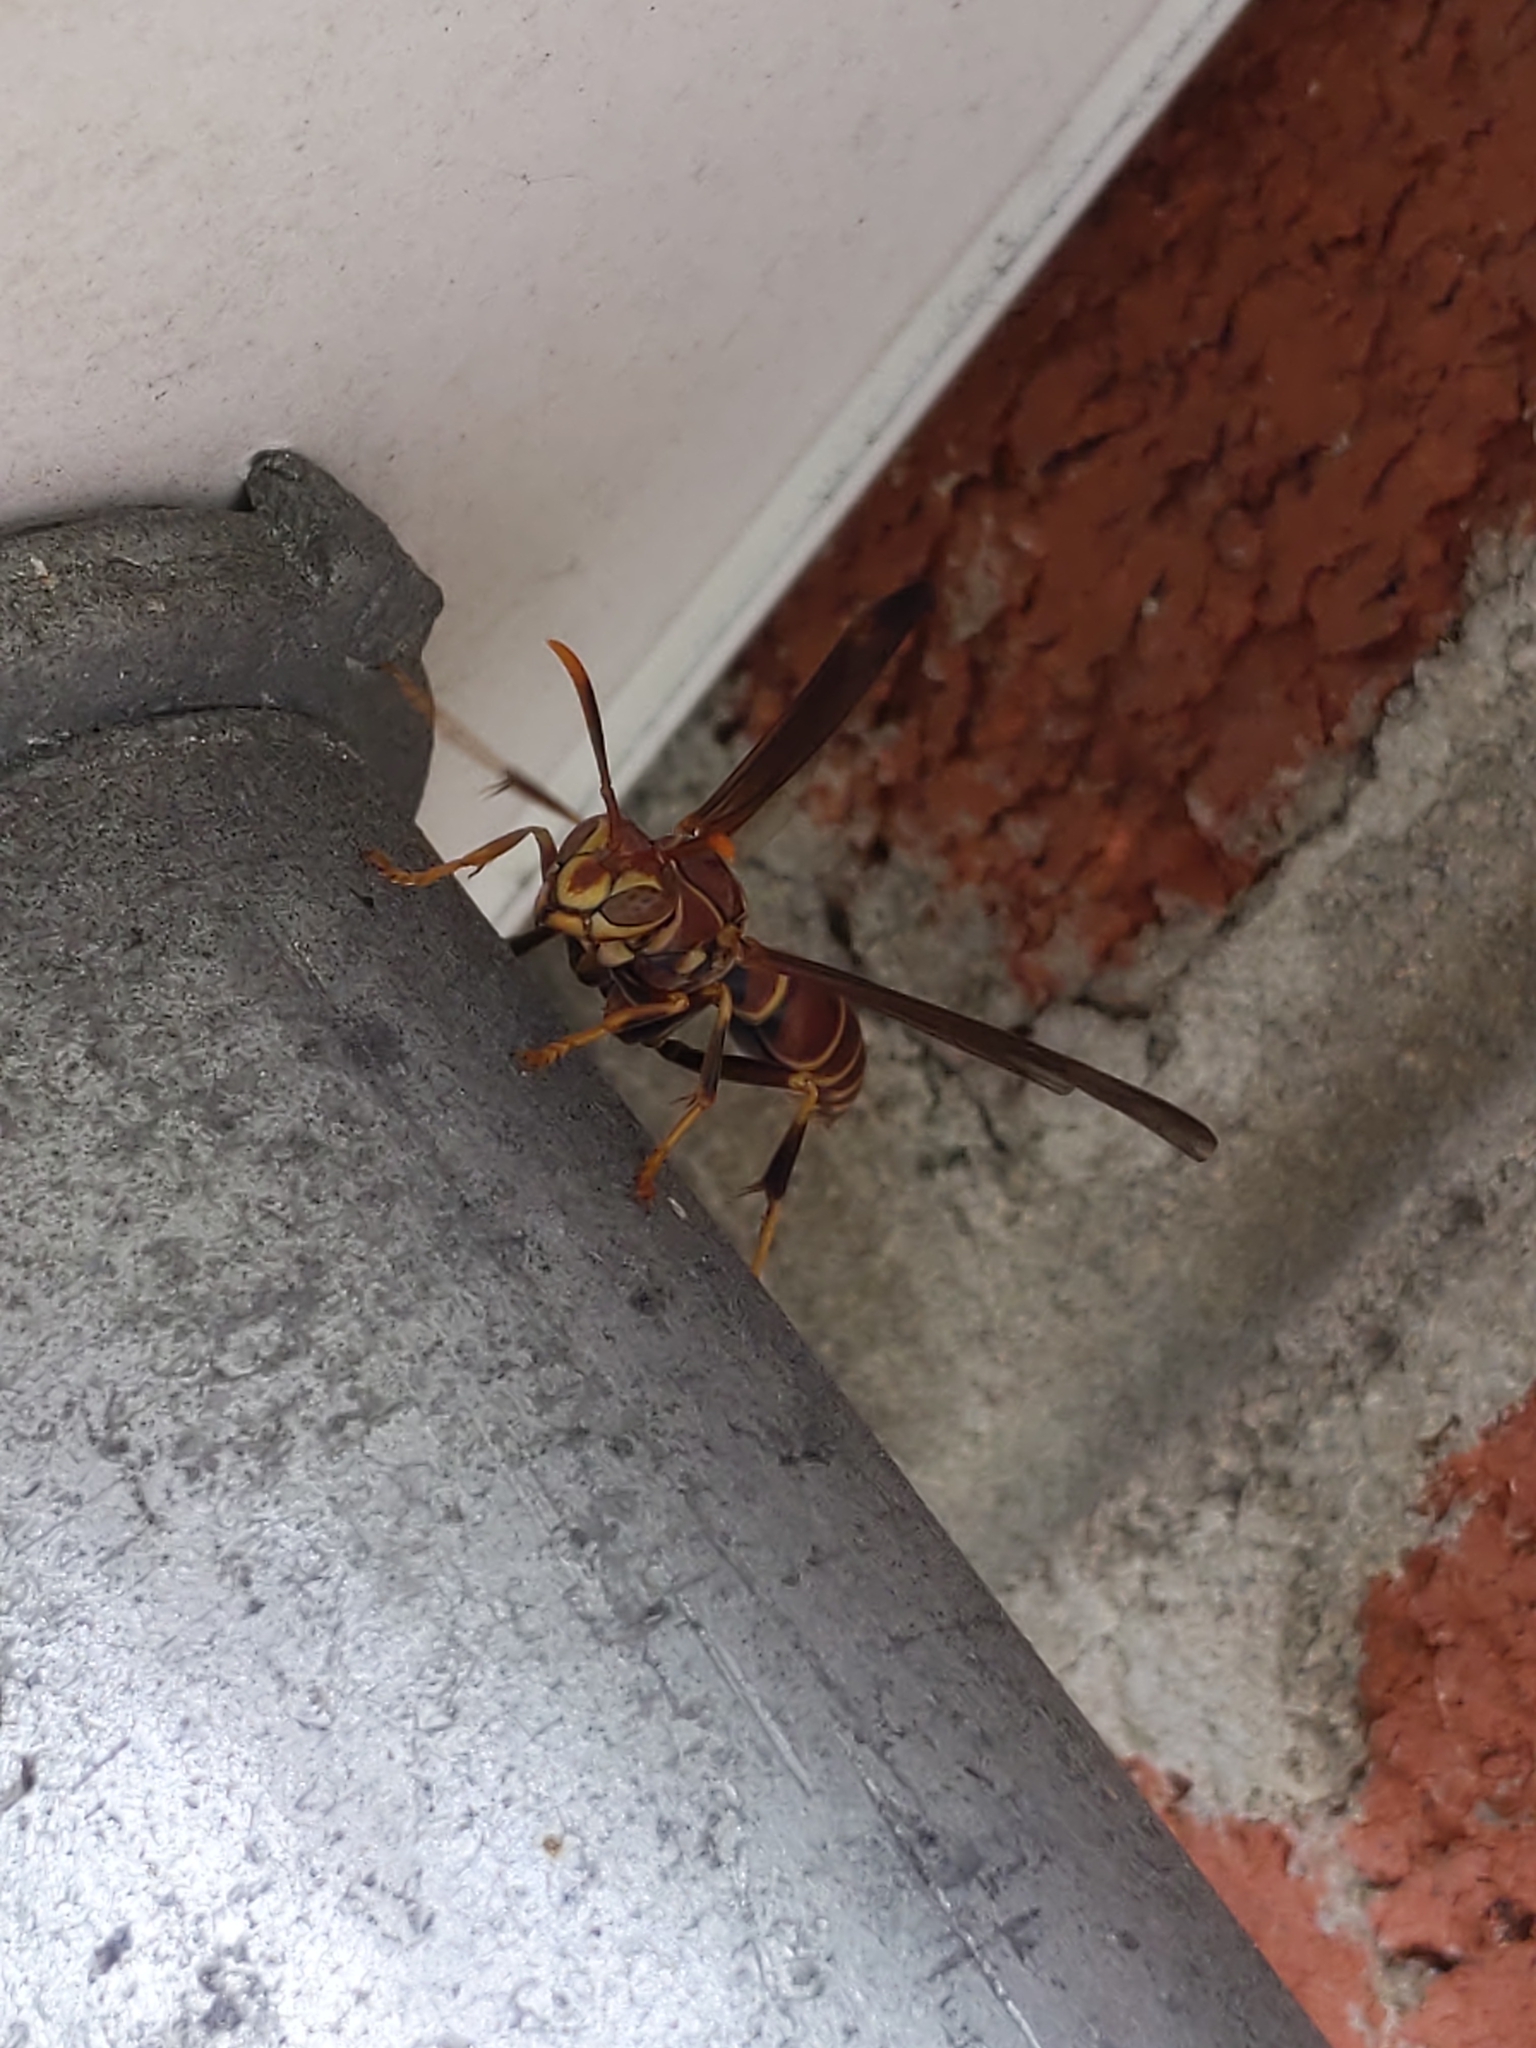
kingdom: Animalia
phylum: Arthropoda
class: Insecta
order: Hymenoptera
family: Eumenidae
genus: Polistes
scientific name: Polistes exclamans
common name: Paper wasp
